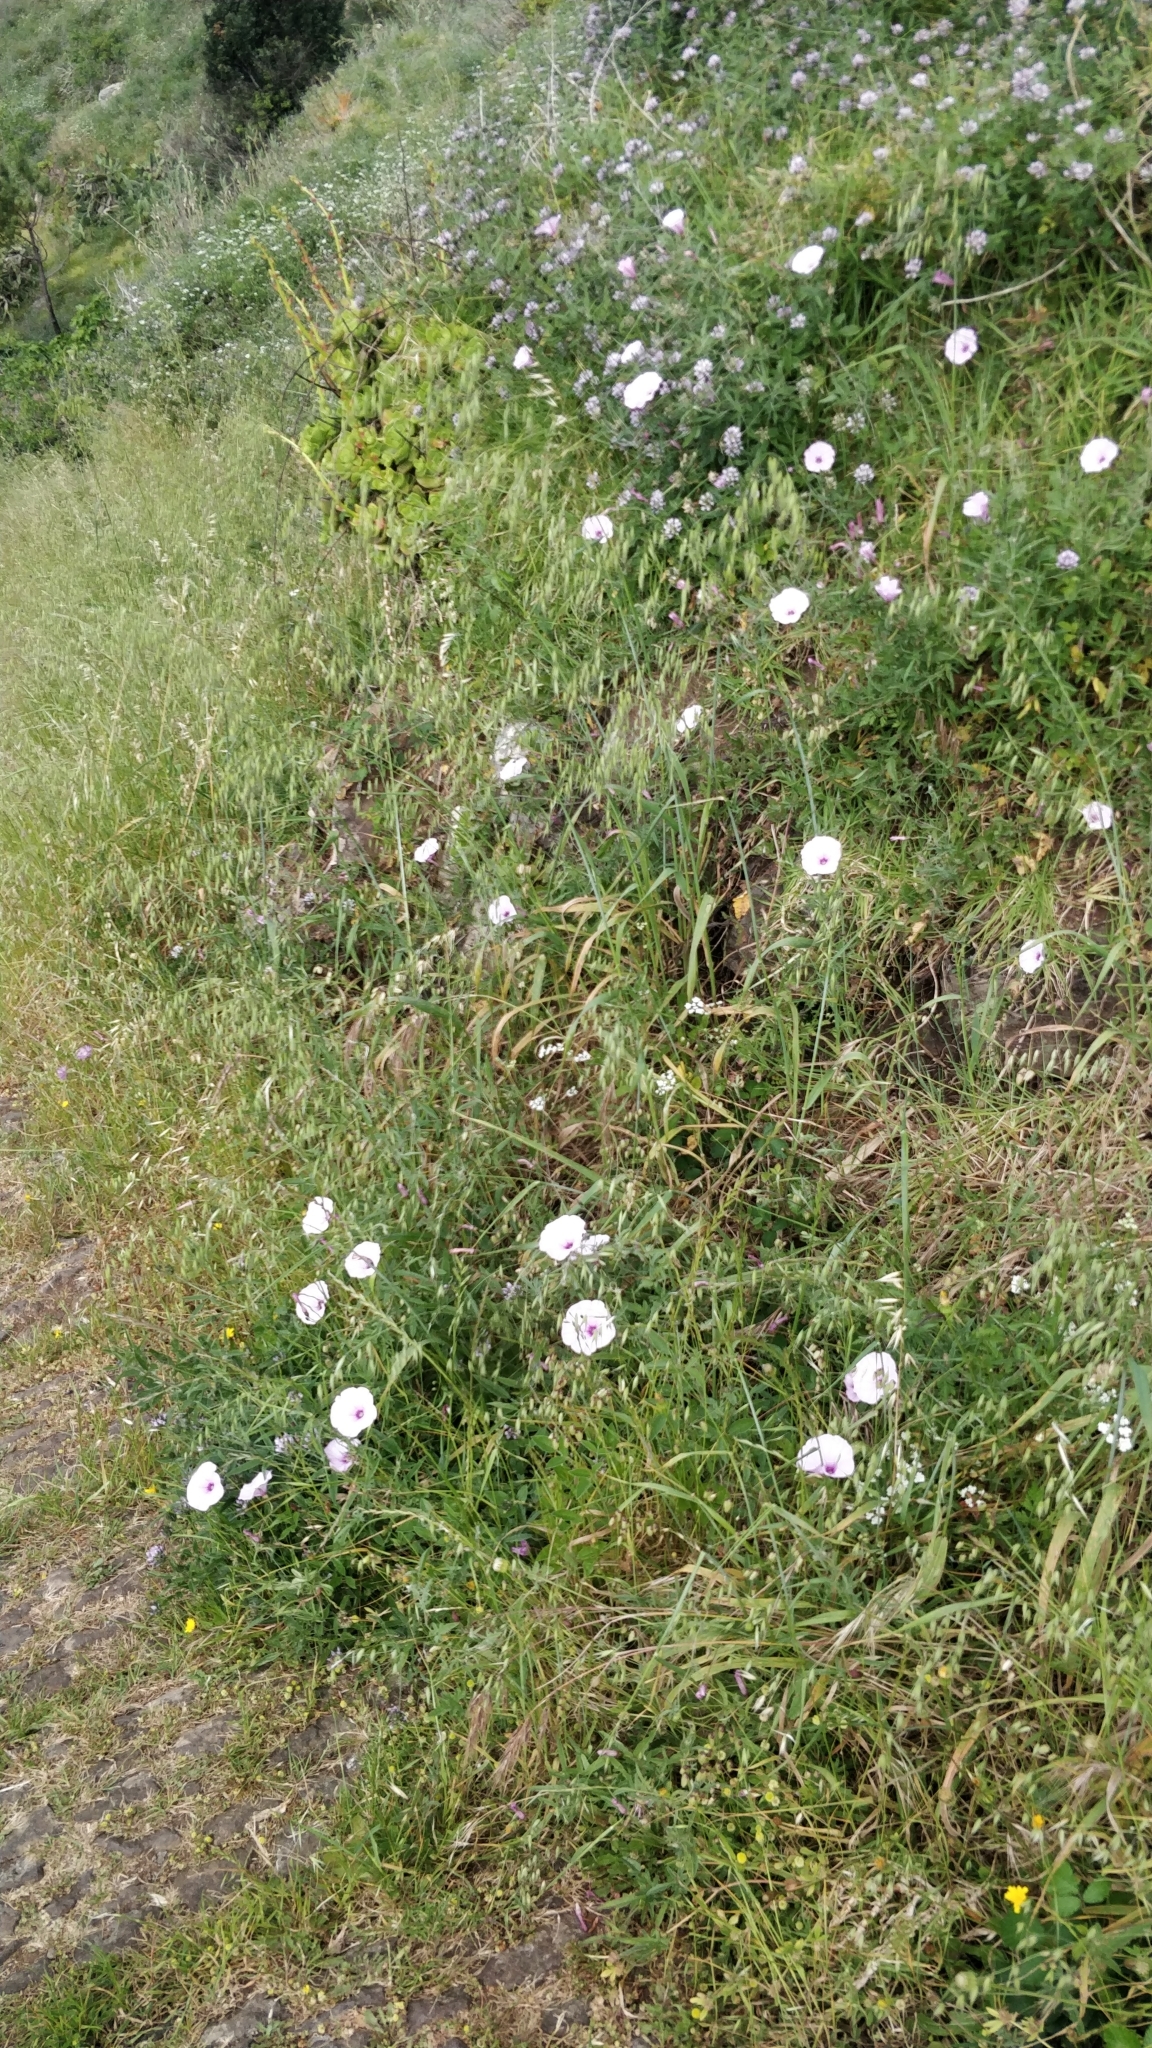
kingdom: Plantae
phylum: Tracheophyta
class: Magnoliopsida
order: Solanales
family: Convolvulaceae
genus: Convolvulus
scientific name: Convolvulus althaeoides
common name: Mallow bindweed
